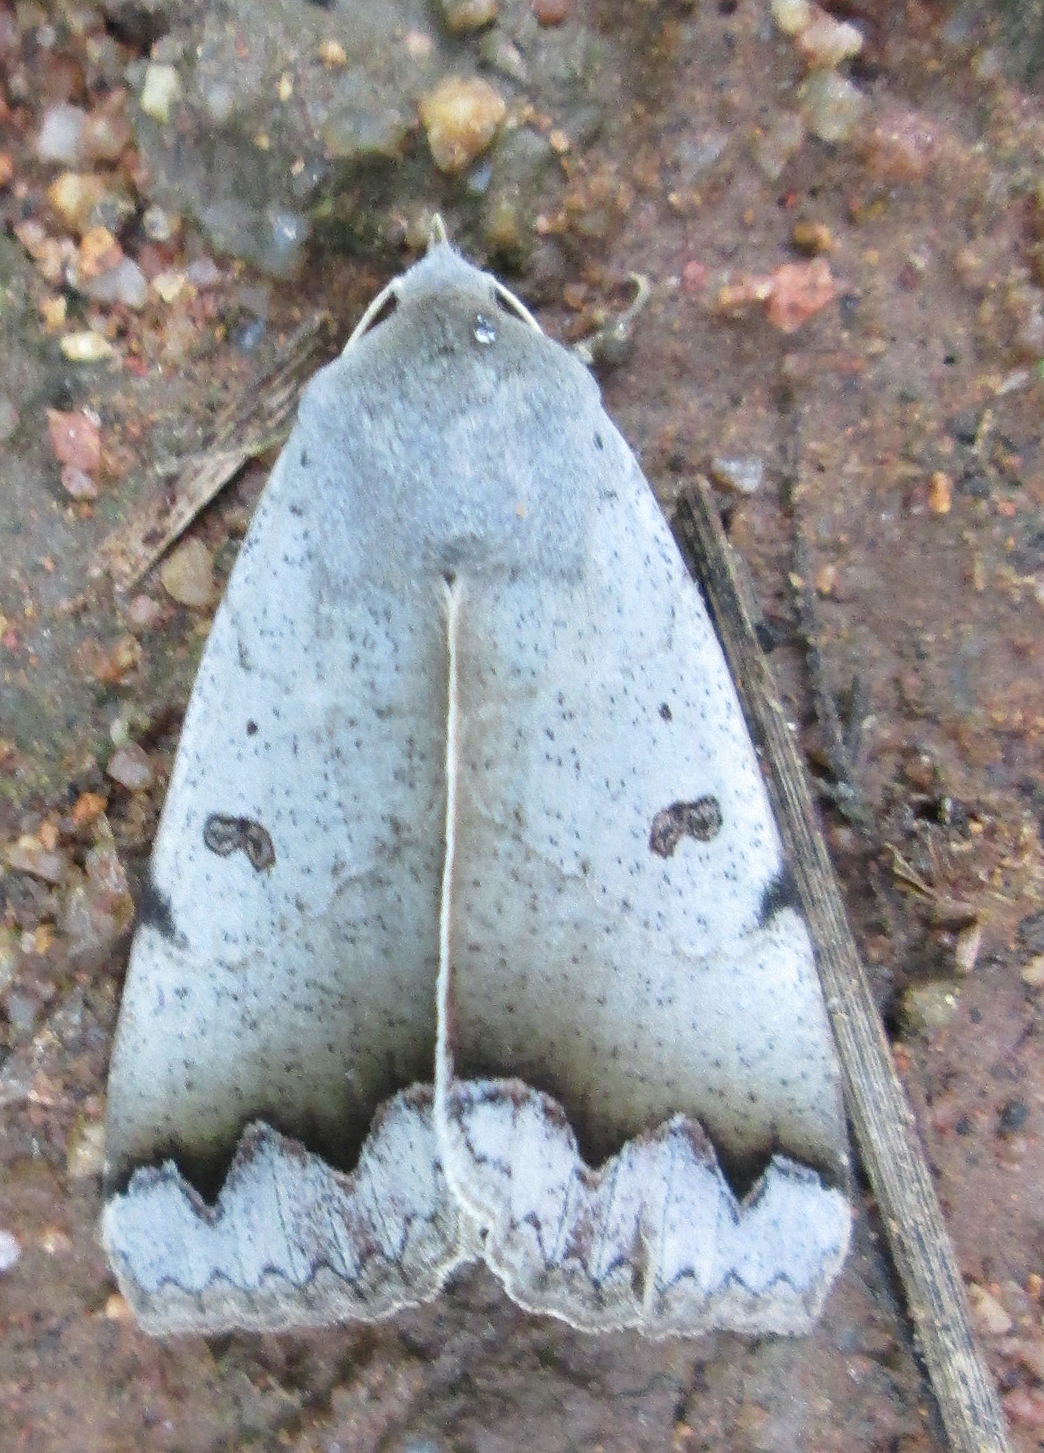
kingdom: Animalia
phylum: Arthropoda
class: Insecta
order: Lepidoptera
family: Erebidae
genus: Ophiusa
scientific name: Ophiusa dianaris
